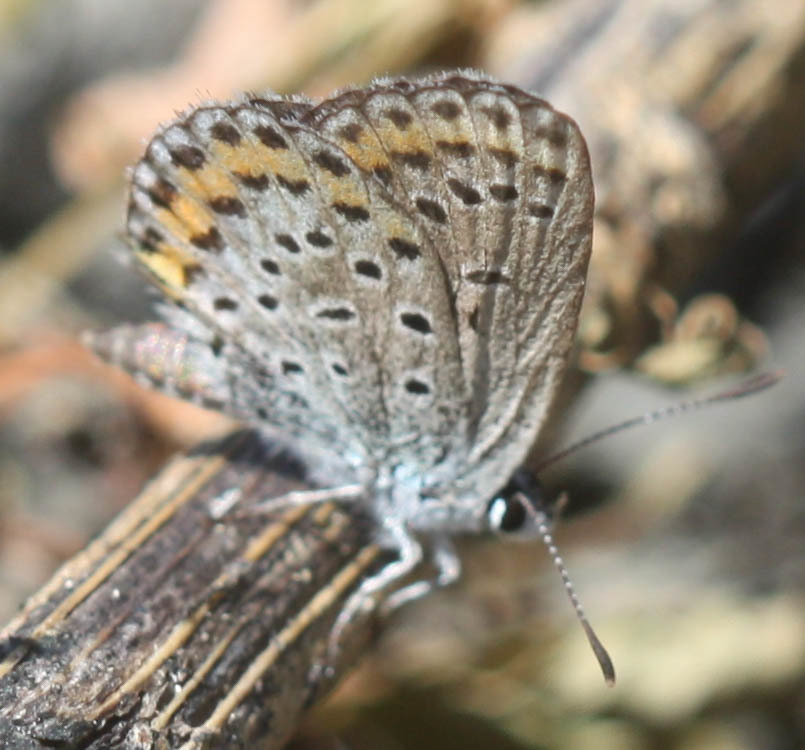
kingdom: Animalia
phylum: Arthropoda
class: Insecta
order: Lepidoptera
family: Lycaenidae
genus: Lycaeides
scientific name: Lycaeides melissa
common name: Melissa blue
